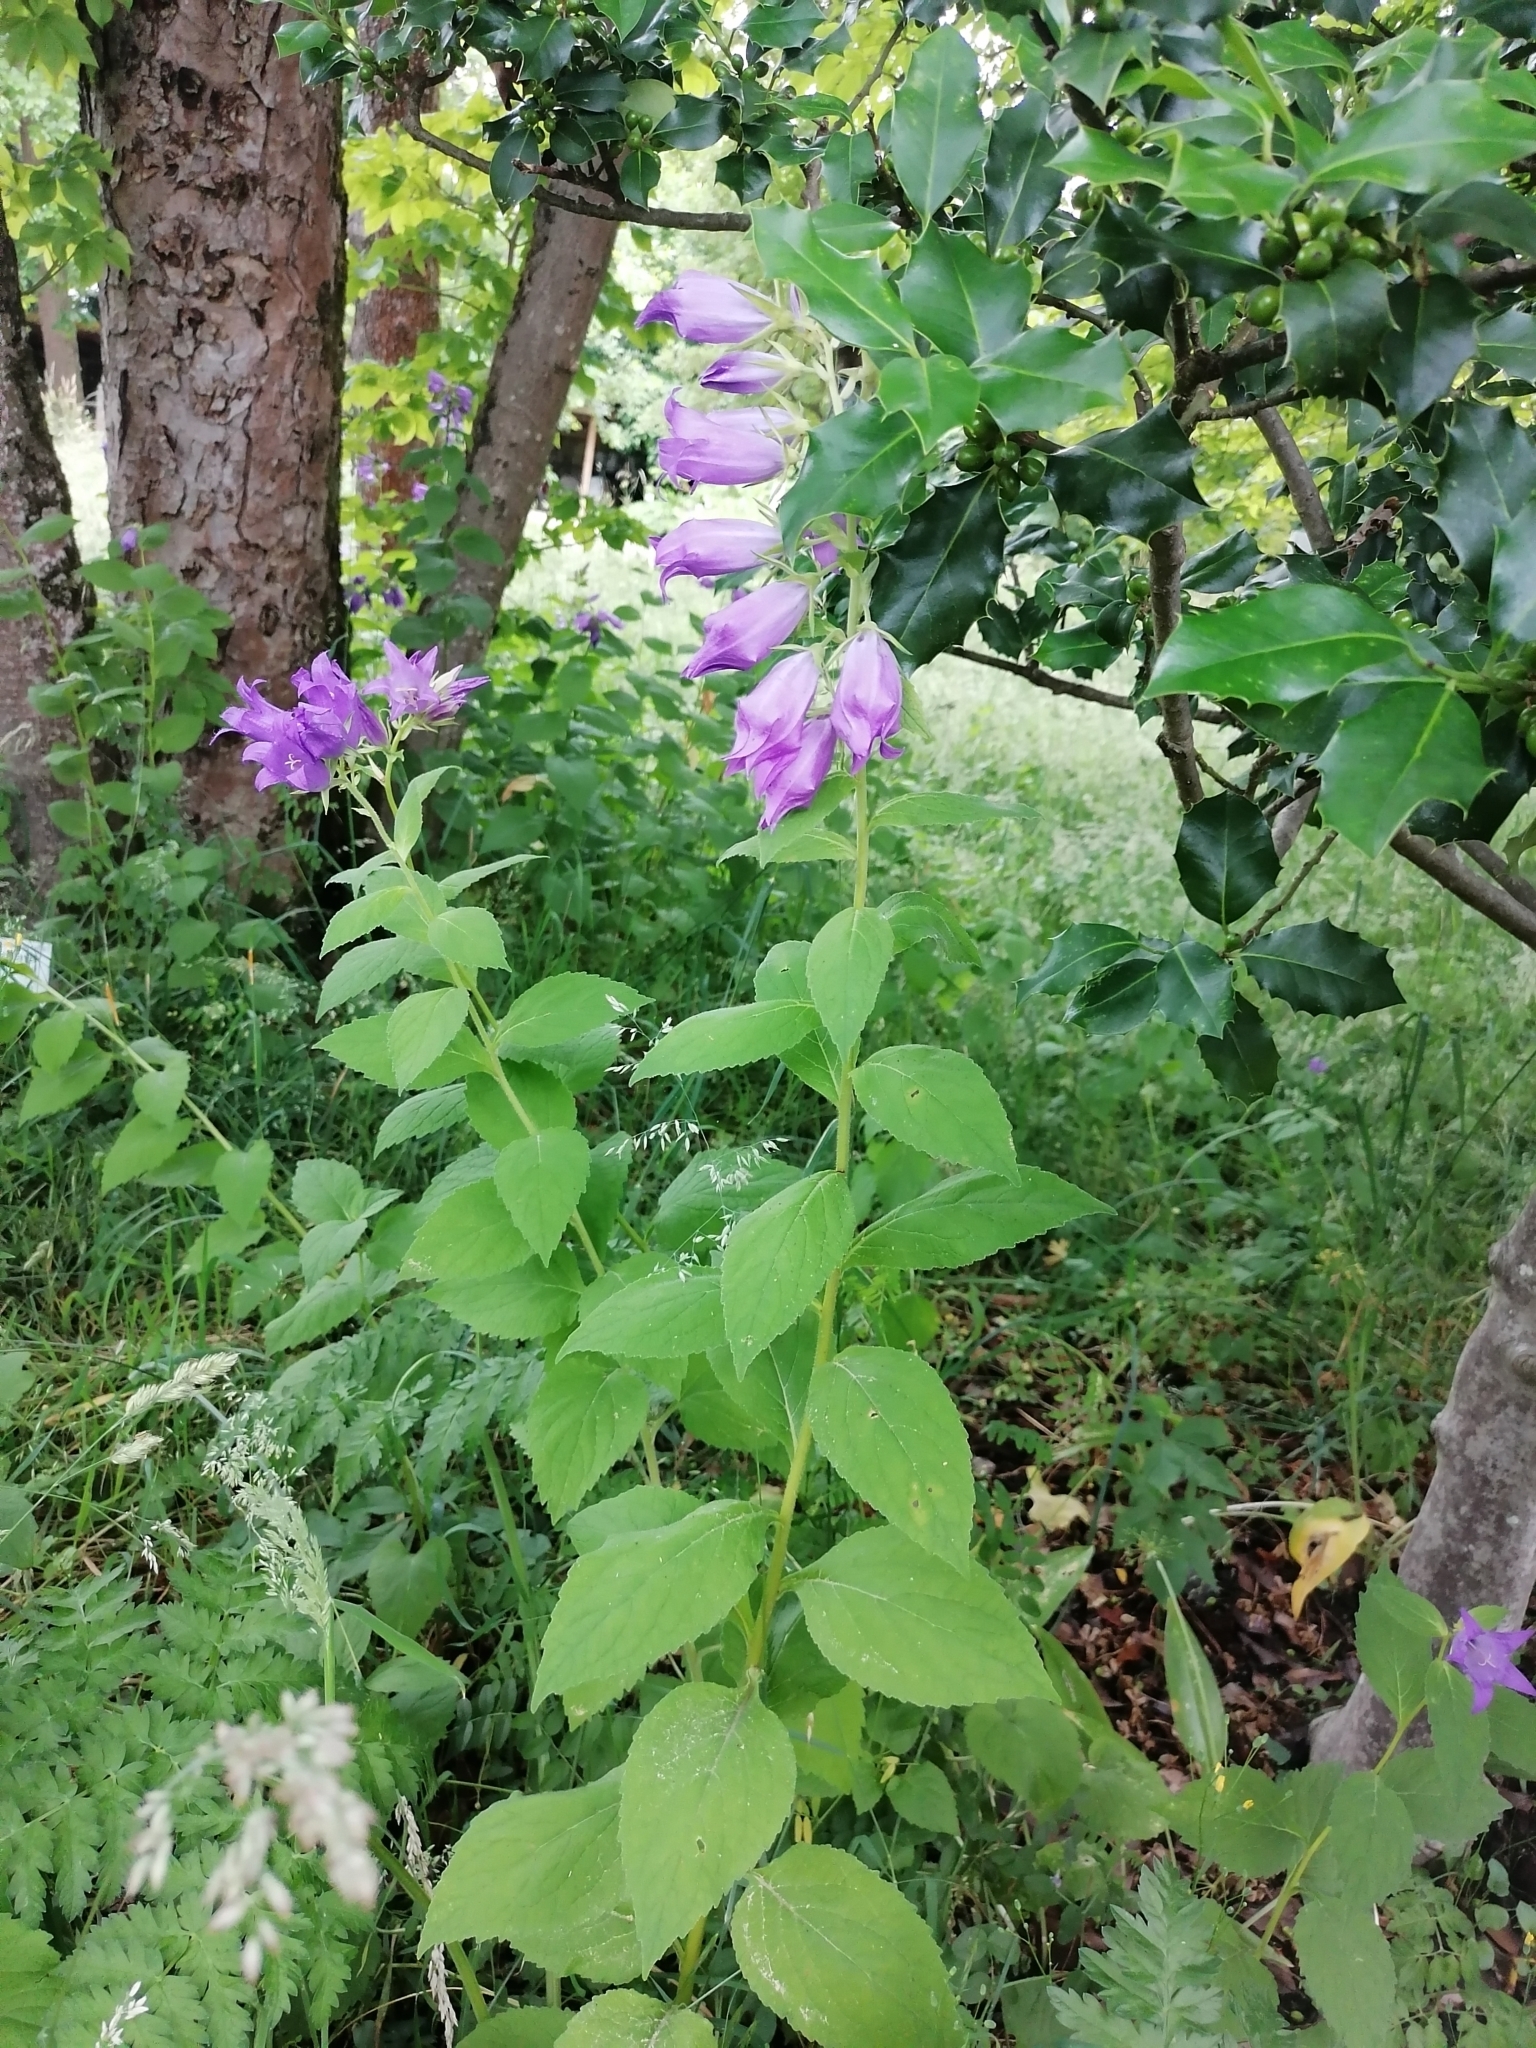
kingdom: Plantae
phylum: Tracheophyta
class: Magnoliopsida
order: Asterales
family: Campanulaceae
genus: Campanula
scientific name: Campanula latifolia
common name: Giant bellflower
